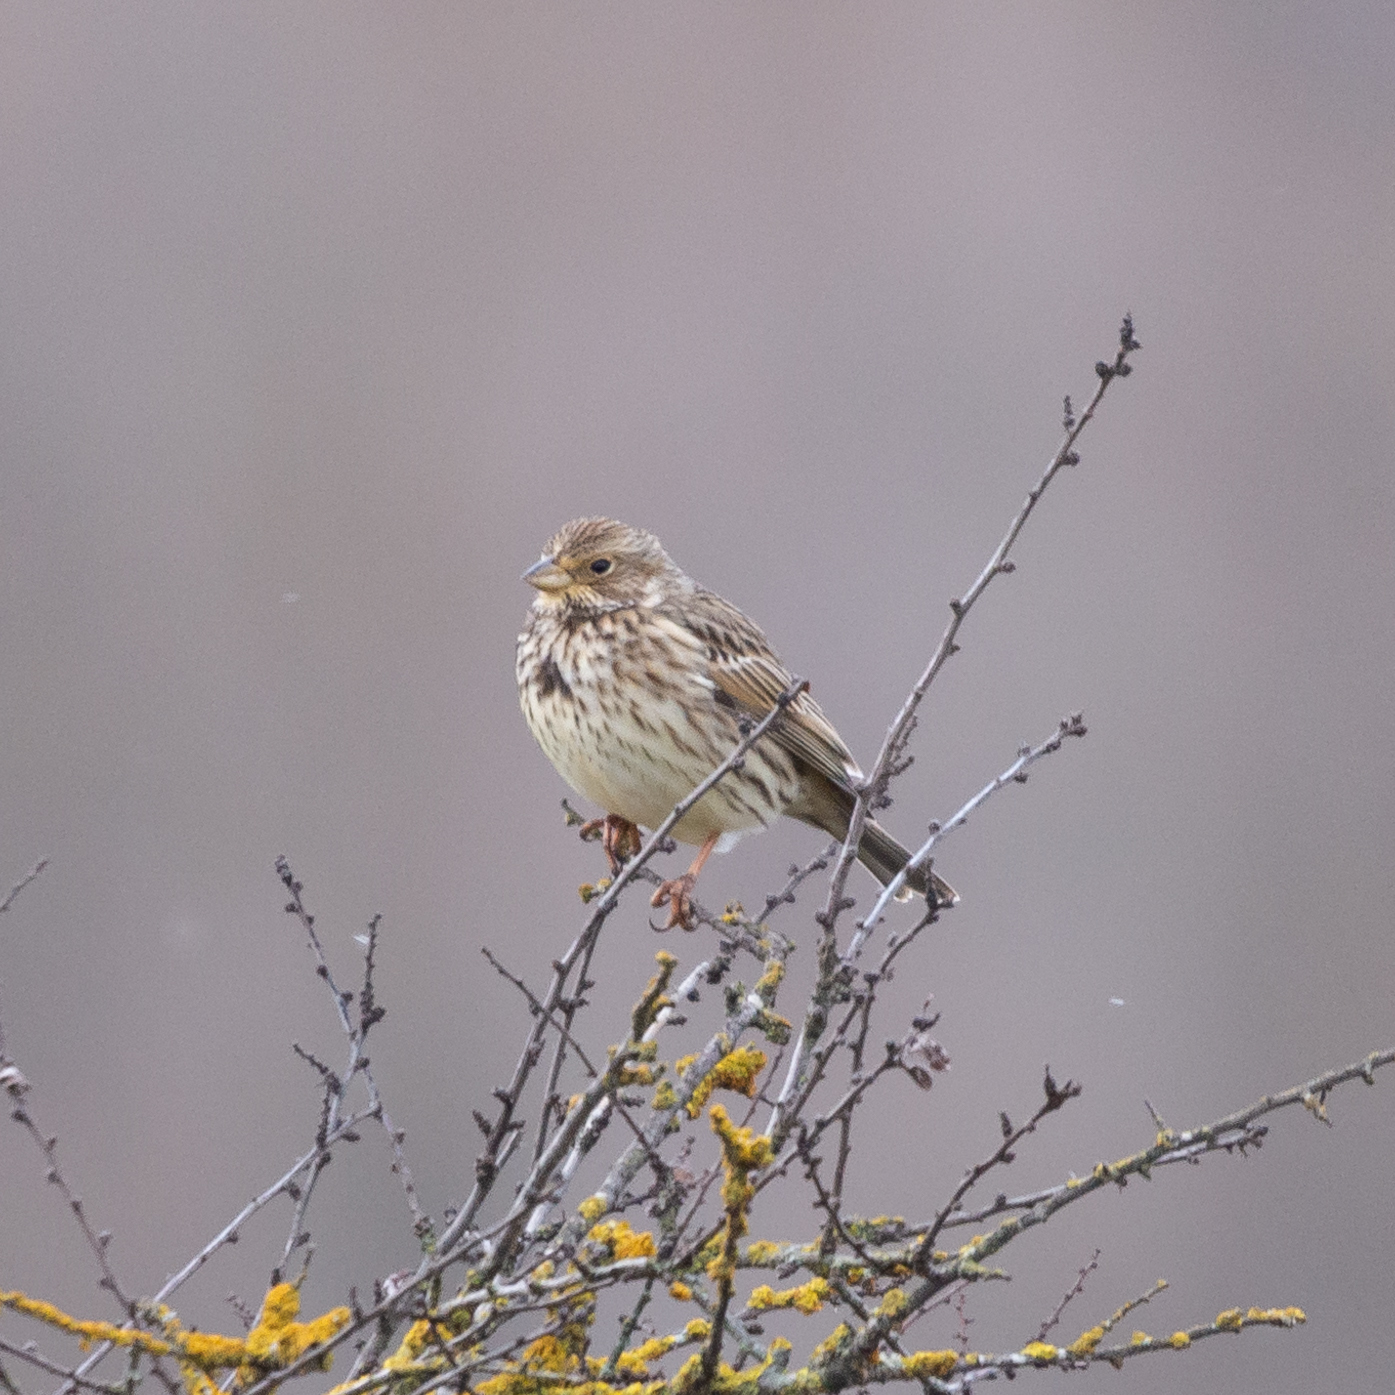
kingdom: Animalia
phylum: Chordata
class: Aves
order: Passeriformes
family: Emberizidae
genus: Emberiza
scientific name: Emberiza calandra
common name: Corn bunting
